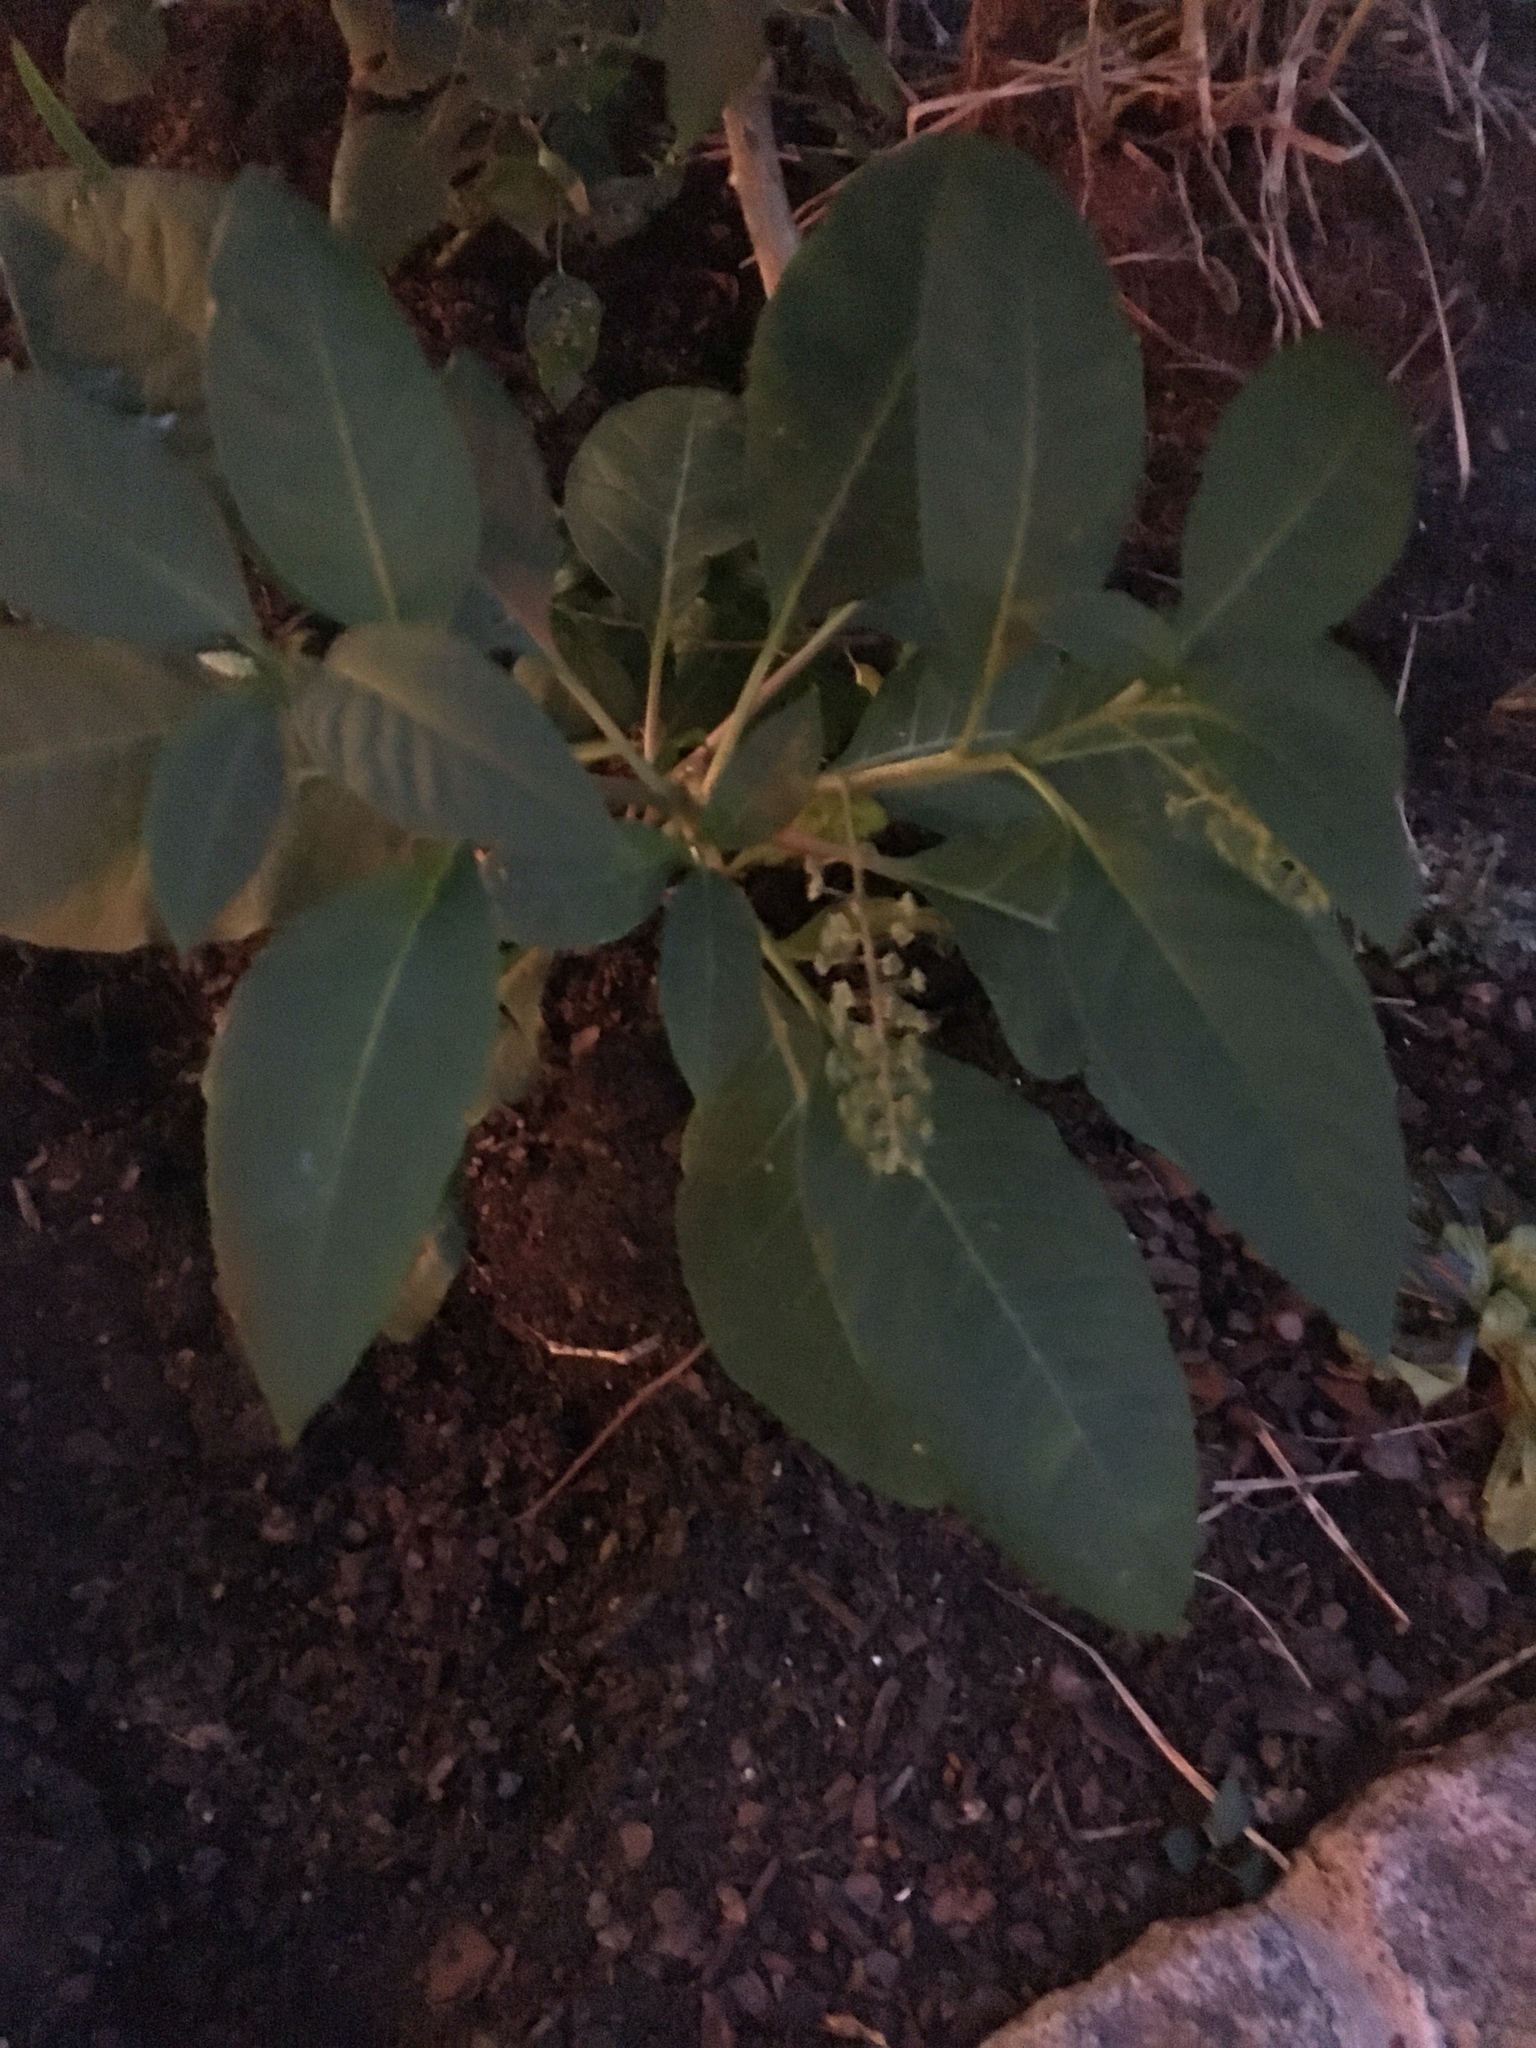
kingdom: Plantae
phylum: Tracheophyta
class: Magnoliopsida
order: Caryophyllales
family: Phytolaccaceae
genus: Phytolacca
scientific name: Phytolacca americana
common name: American pokeweed
